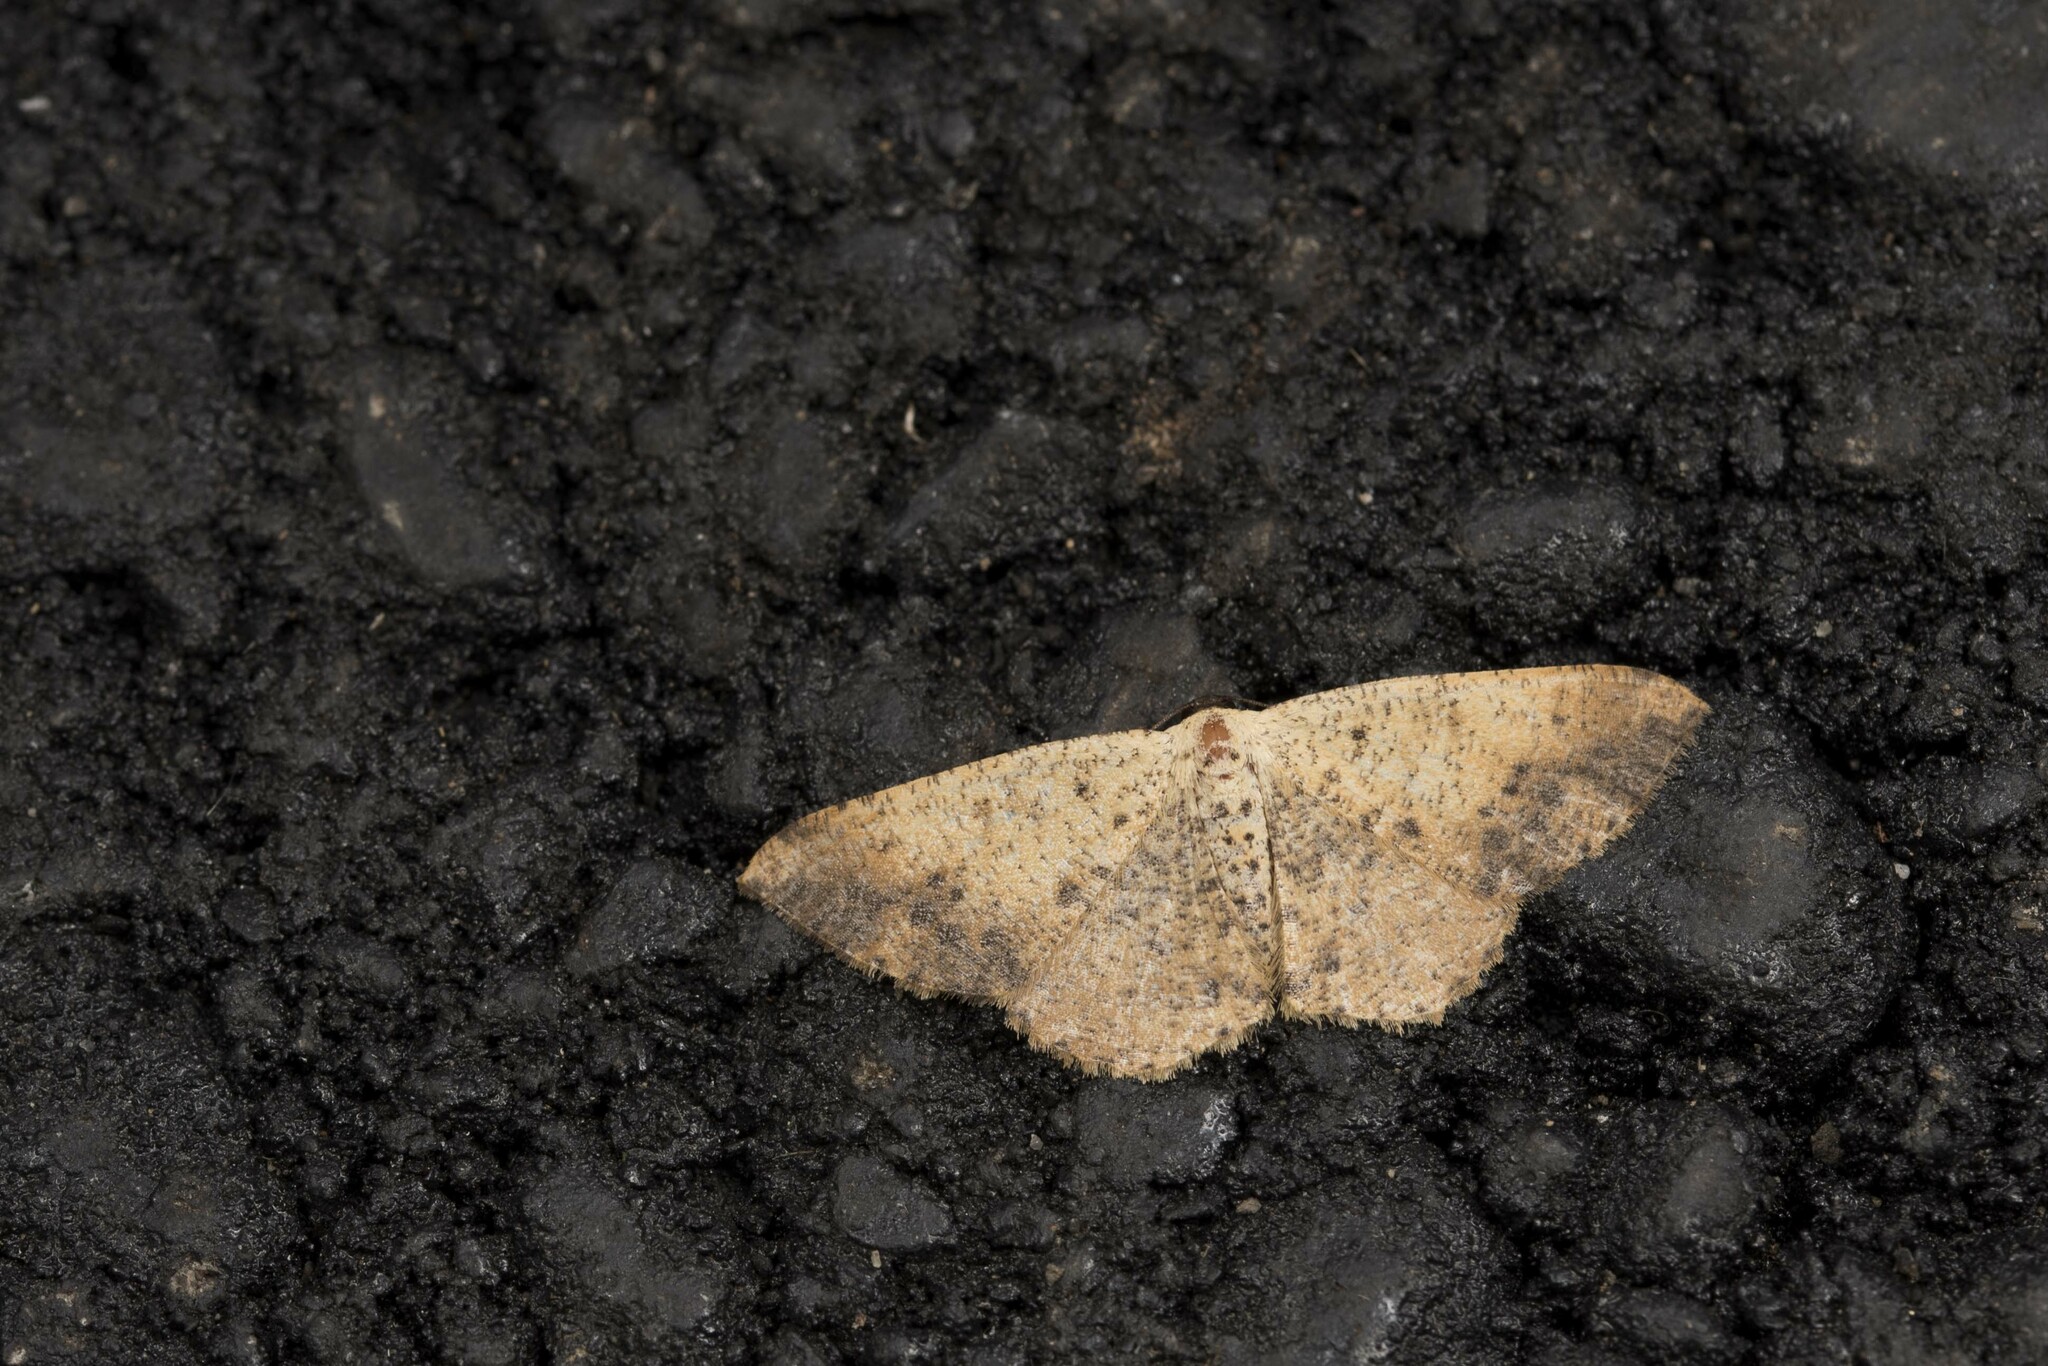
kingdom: Animalia
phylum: Arthropoda
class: Insecta
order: Lepidoptera
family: Geometridae
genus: Alcis
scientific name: Alcis ochrolaria
